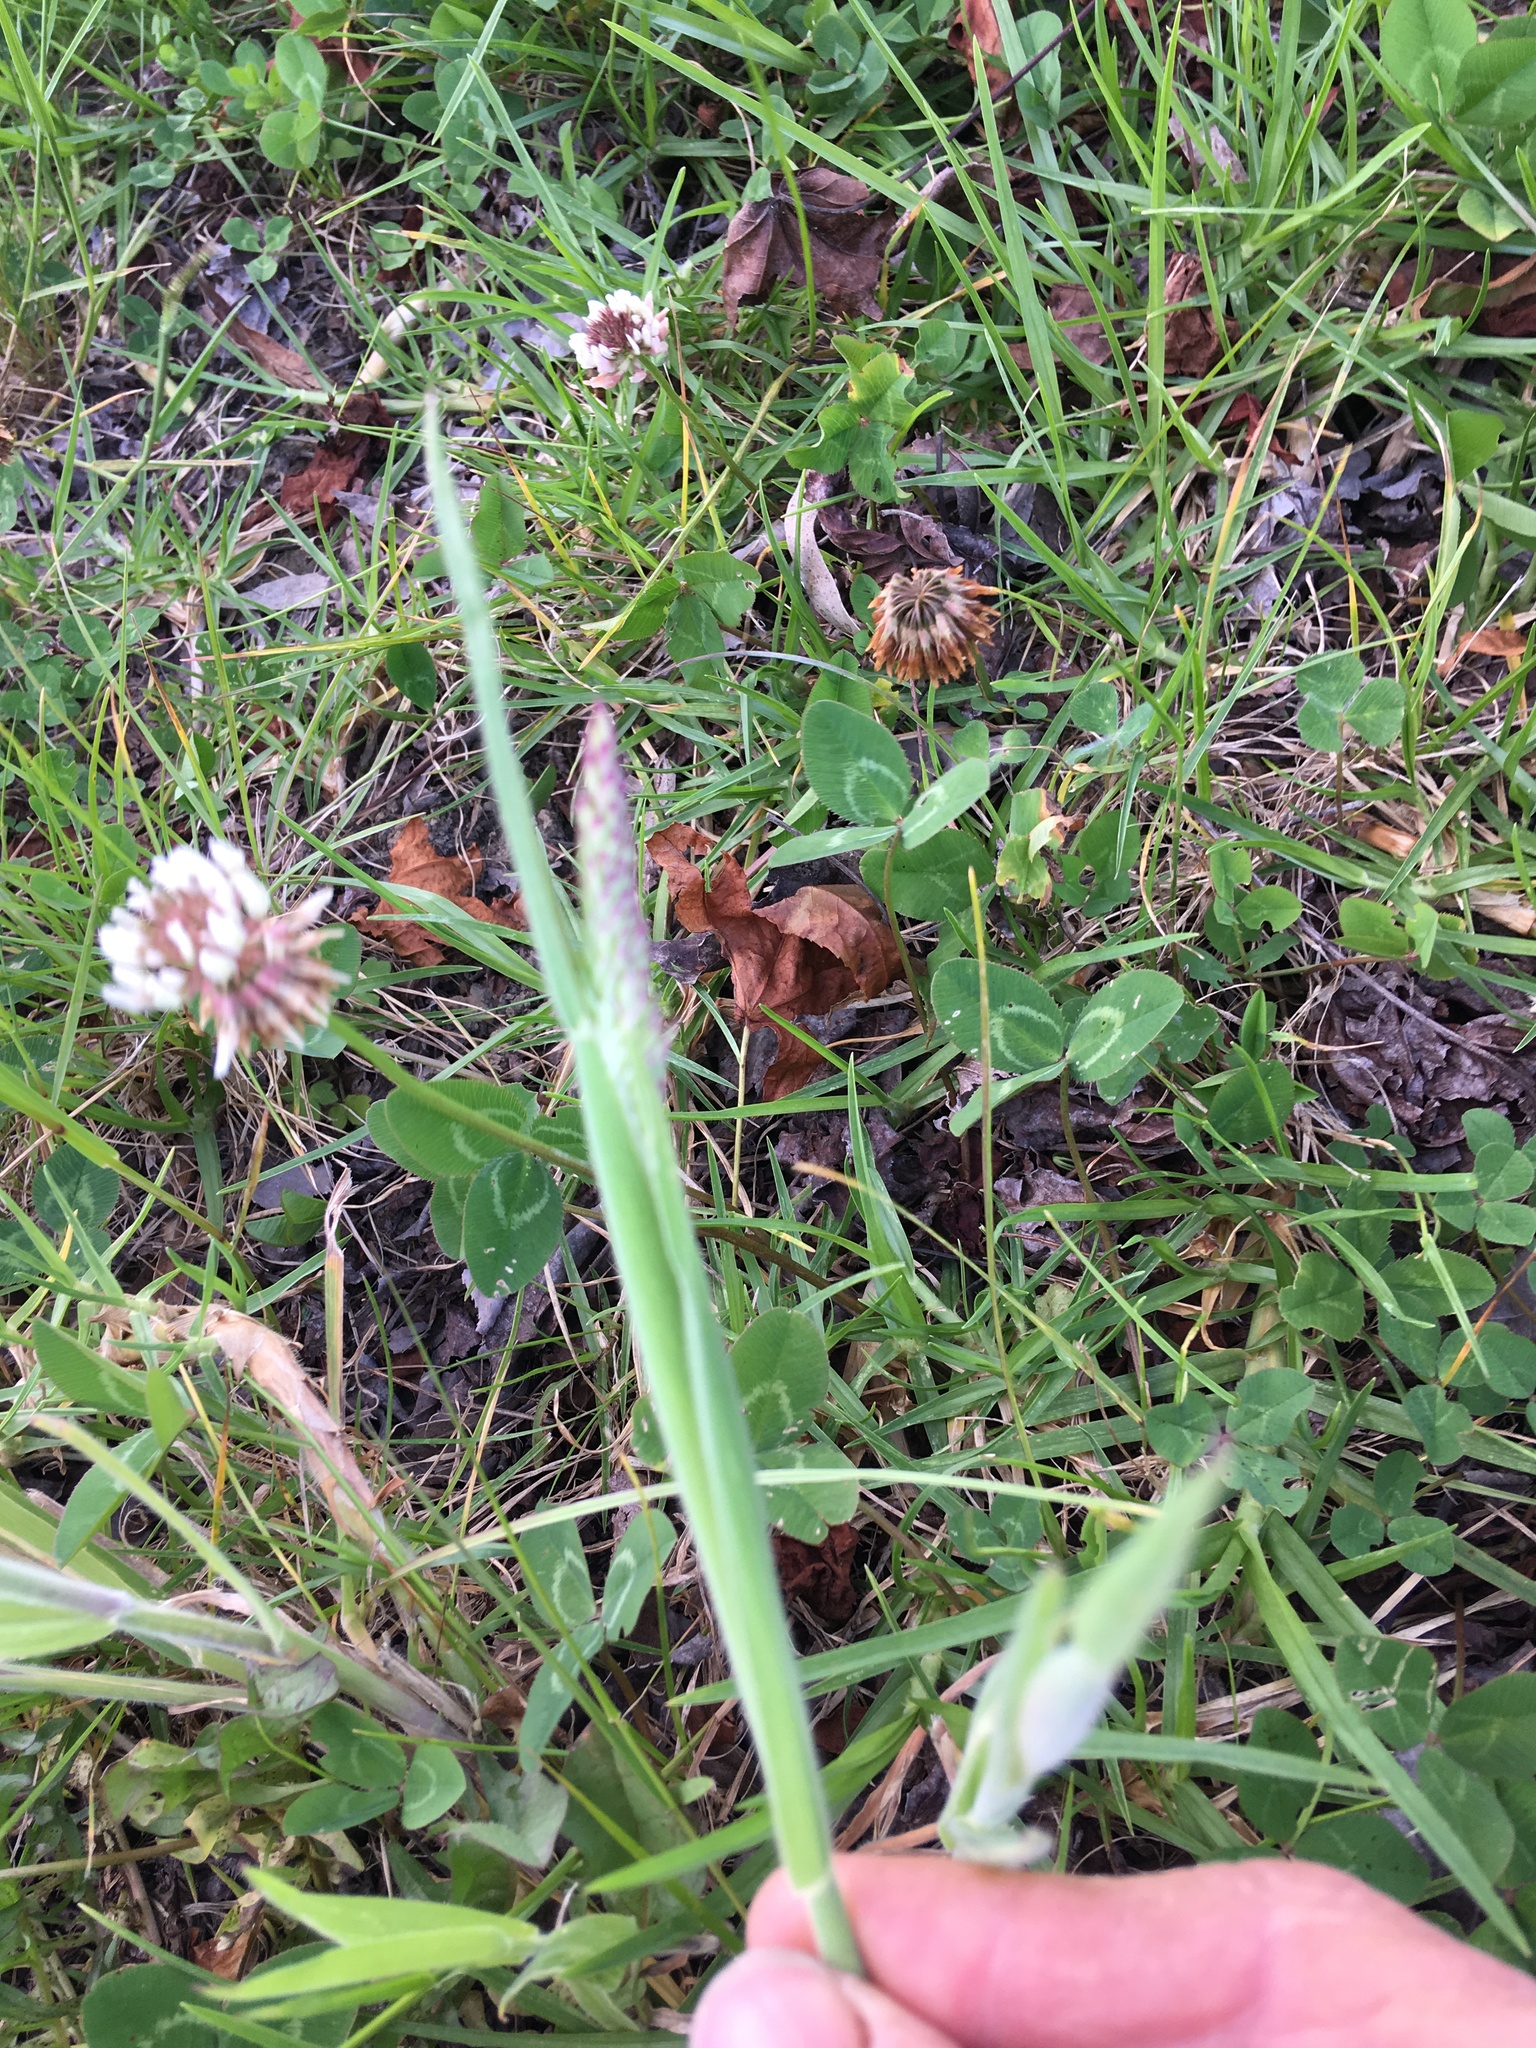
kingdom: Plantae
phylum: Tracheophyta
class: Liliopsida
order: Poales
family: Poaceae
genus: Holcus
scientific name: Holcus lanatus
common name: Yorkshire-fog
